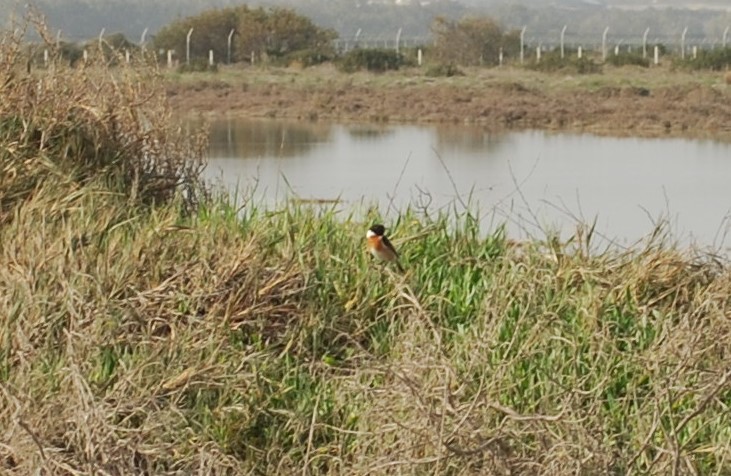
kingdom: Animalia
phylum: Chordata
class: Aves
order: Passeriformes
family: Muscicapidae
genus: Saxicola
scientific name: Saxicola rubicola
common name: European stonechat
